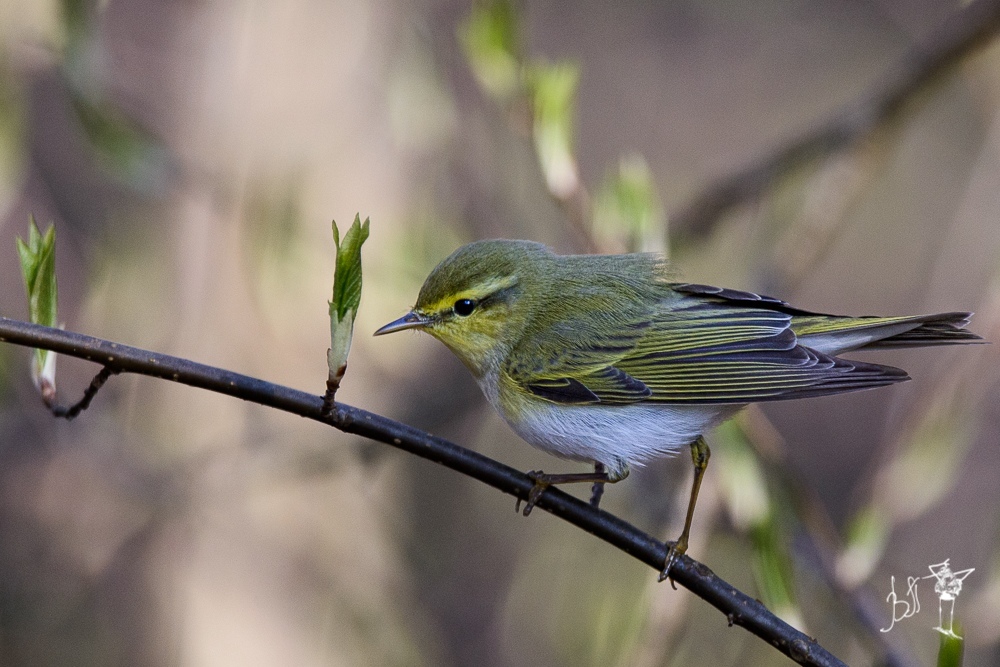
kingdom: Animalia
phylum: Chordata
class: Aves
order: Passeriformes
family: Phylloscopidae
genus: Phylloscopus
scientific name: Phylloscopus sibillatrix
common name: Wood warbler
